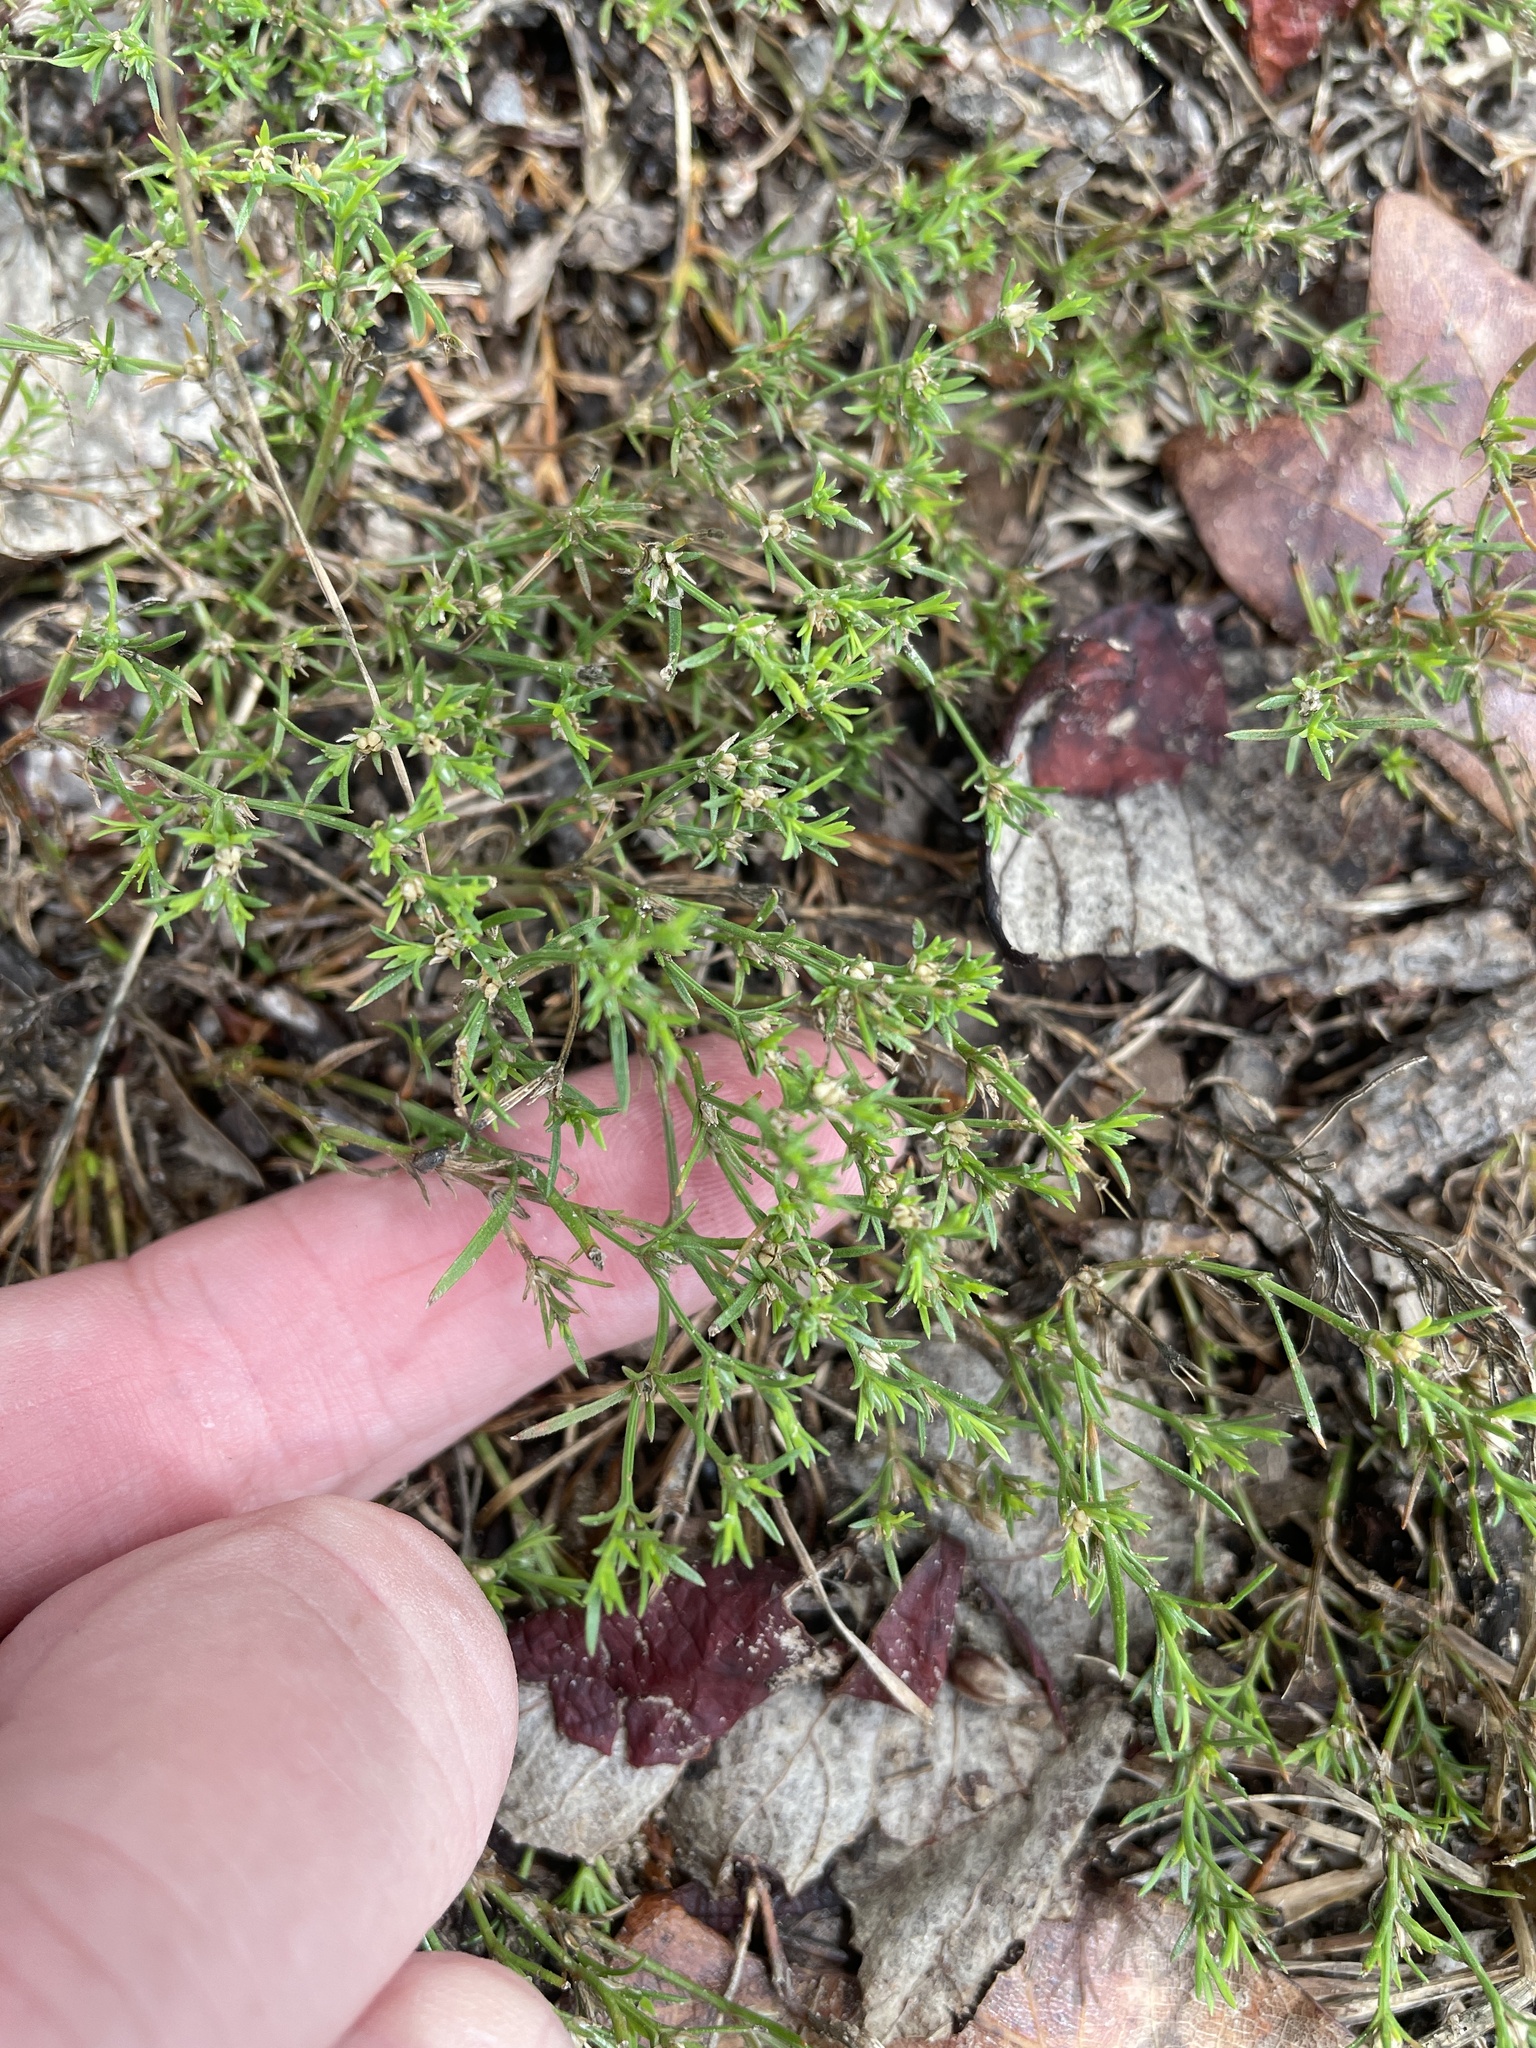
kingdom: Plantae
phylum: Tracheophyta
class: Magnoliopsida
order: Lamiales
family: Tetrachondraceae
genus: Polypremum
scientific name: Polypremum procumbens
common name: Juniper-leaf
